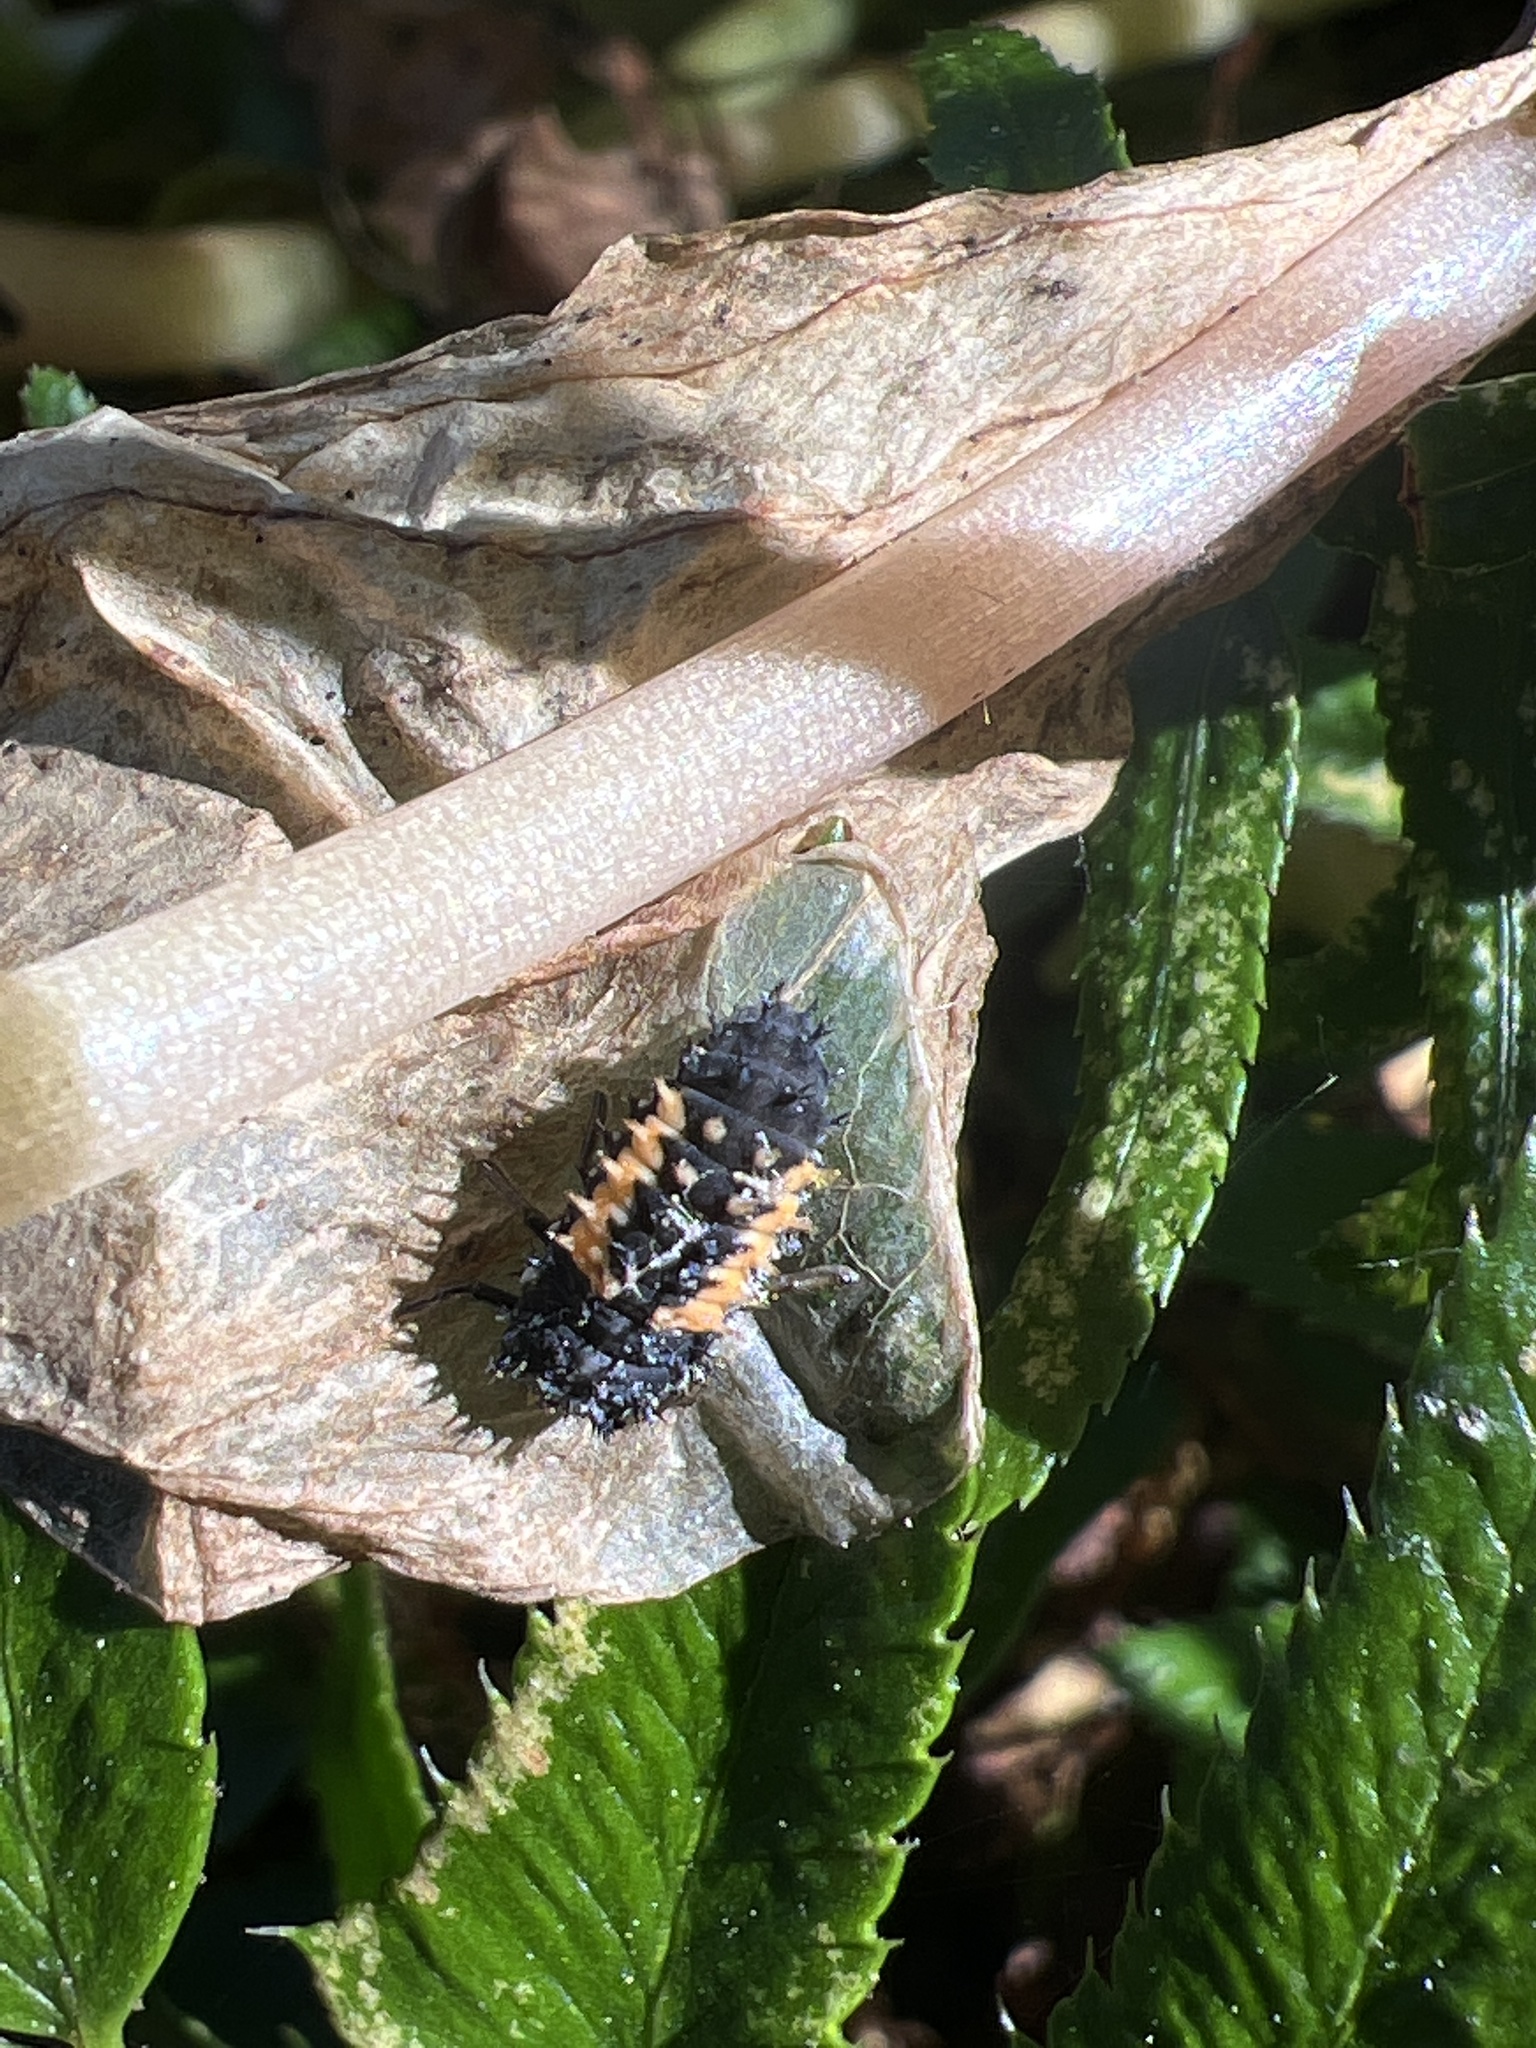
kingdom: Animalia
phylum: Arthropoda
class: Insecta
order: Coleoptera
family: Coccinellidae
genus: Harmonia
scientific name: Harmonia axyridis
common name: Harlequin ladybird
